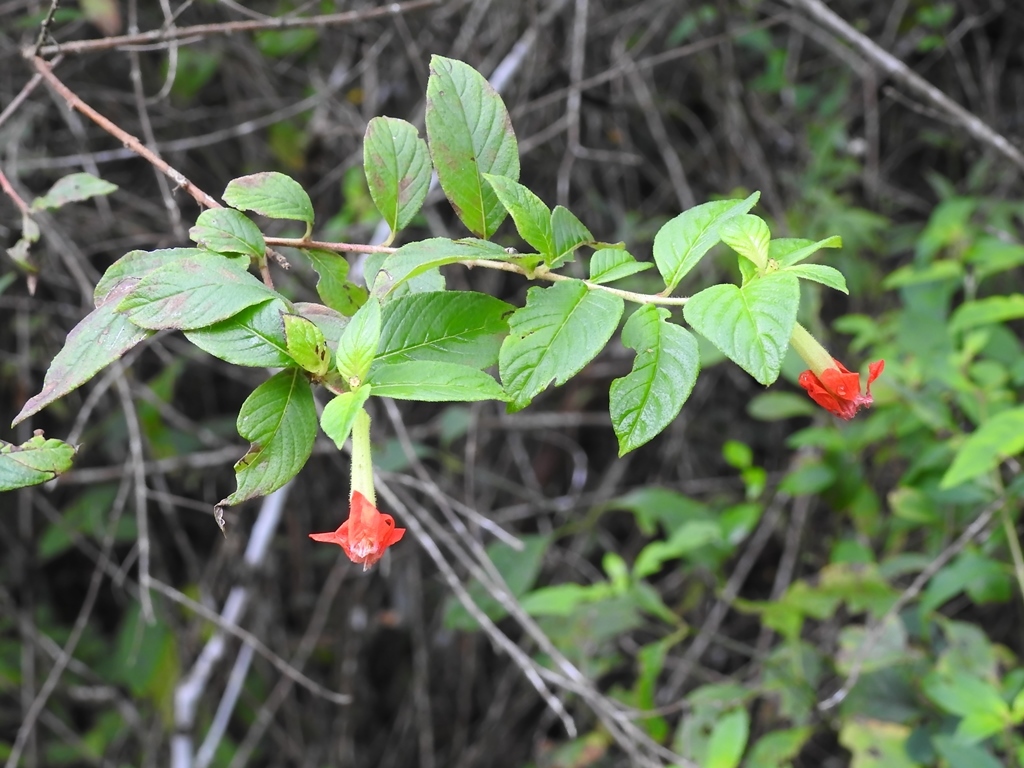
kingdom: Plantae
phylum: Tracheophyta
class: Magnoliopsida
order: Myrtales
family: Lythraceae
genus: Cuphea
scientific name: Cuphea intermedia
